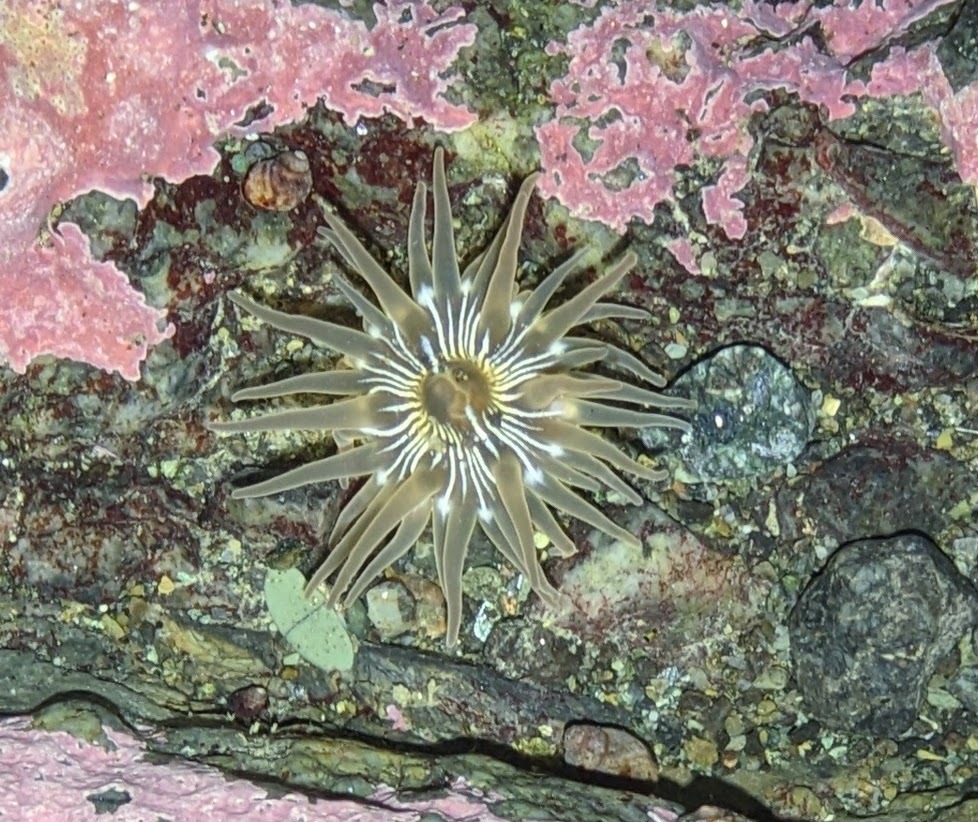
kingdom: Animalia
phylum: Cnidaria
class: Anthozoa
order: Actiniaria
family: Actiniidae
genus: Aulactinia
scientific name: Aulactinia incubans
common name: Incubating anemone
